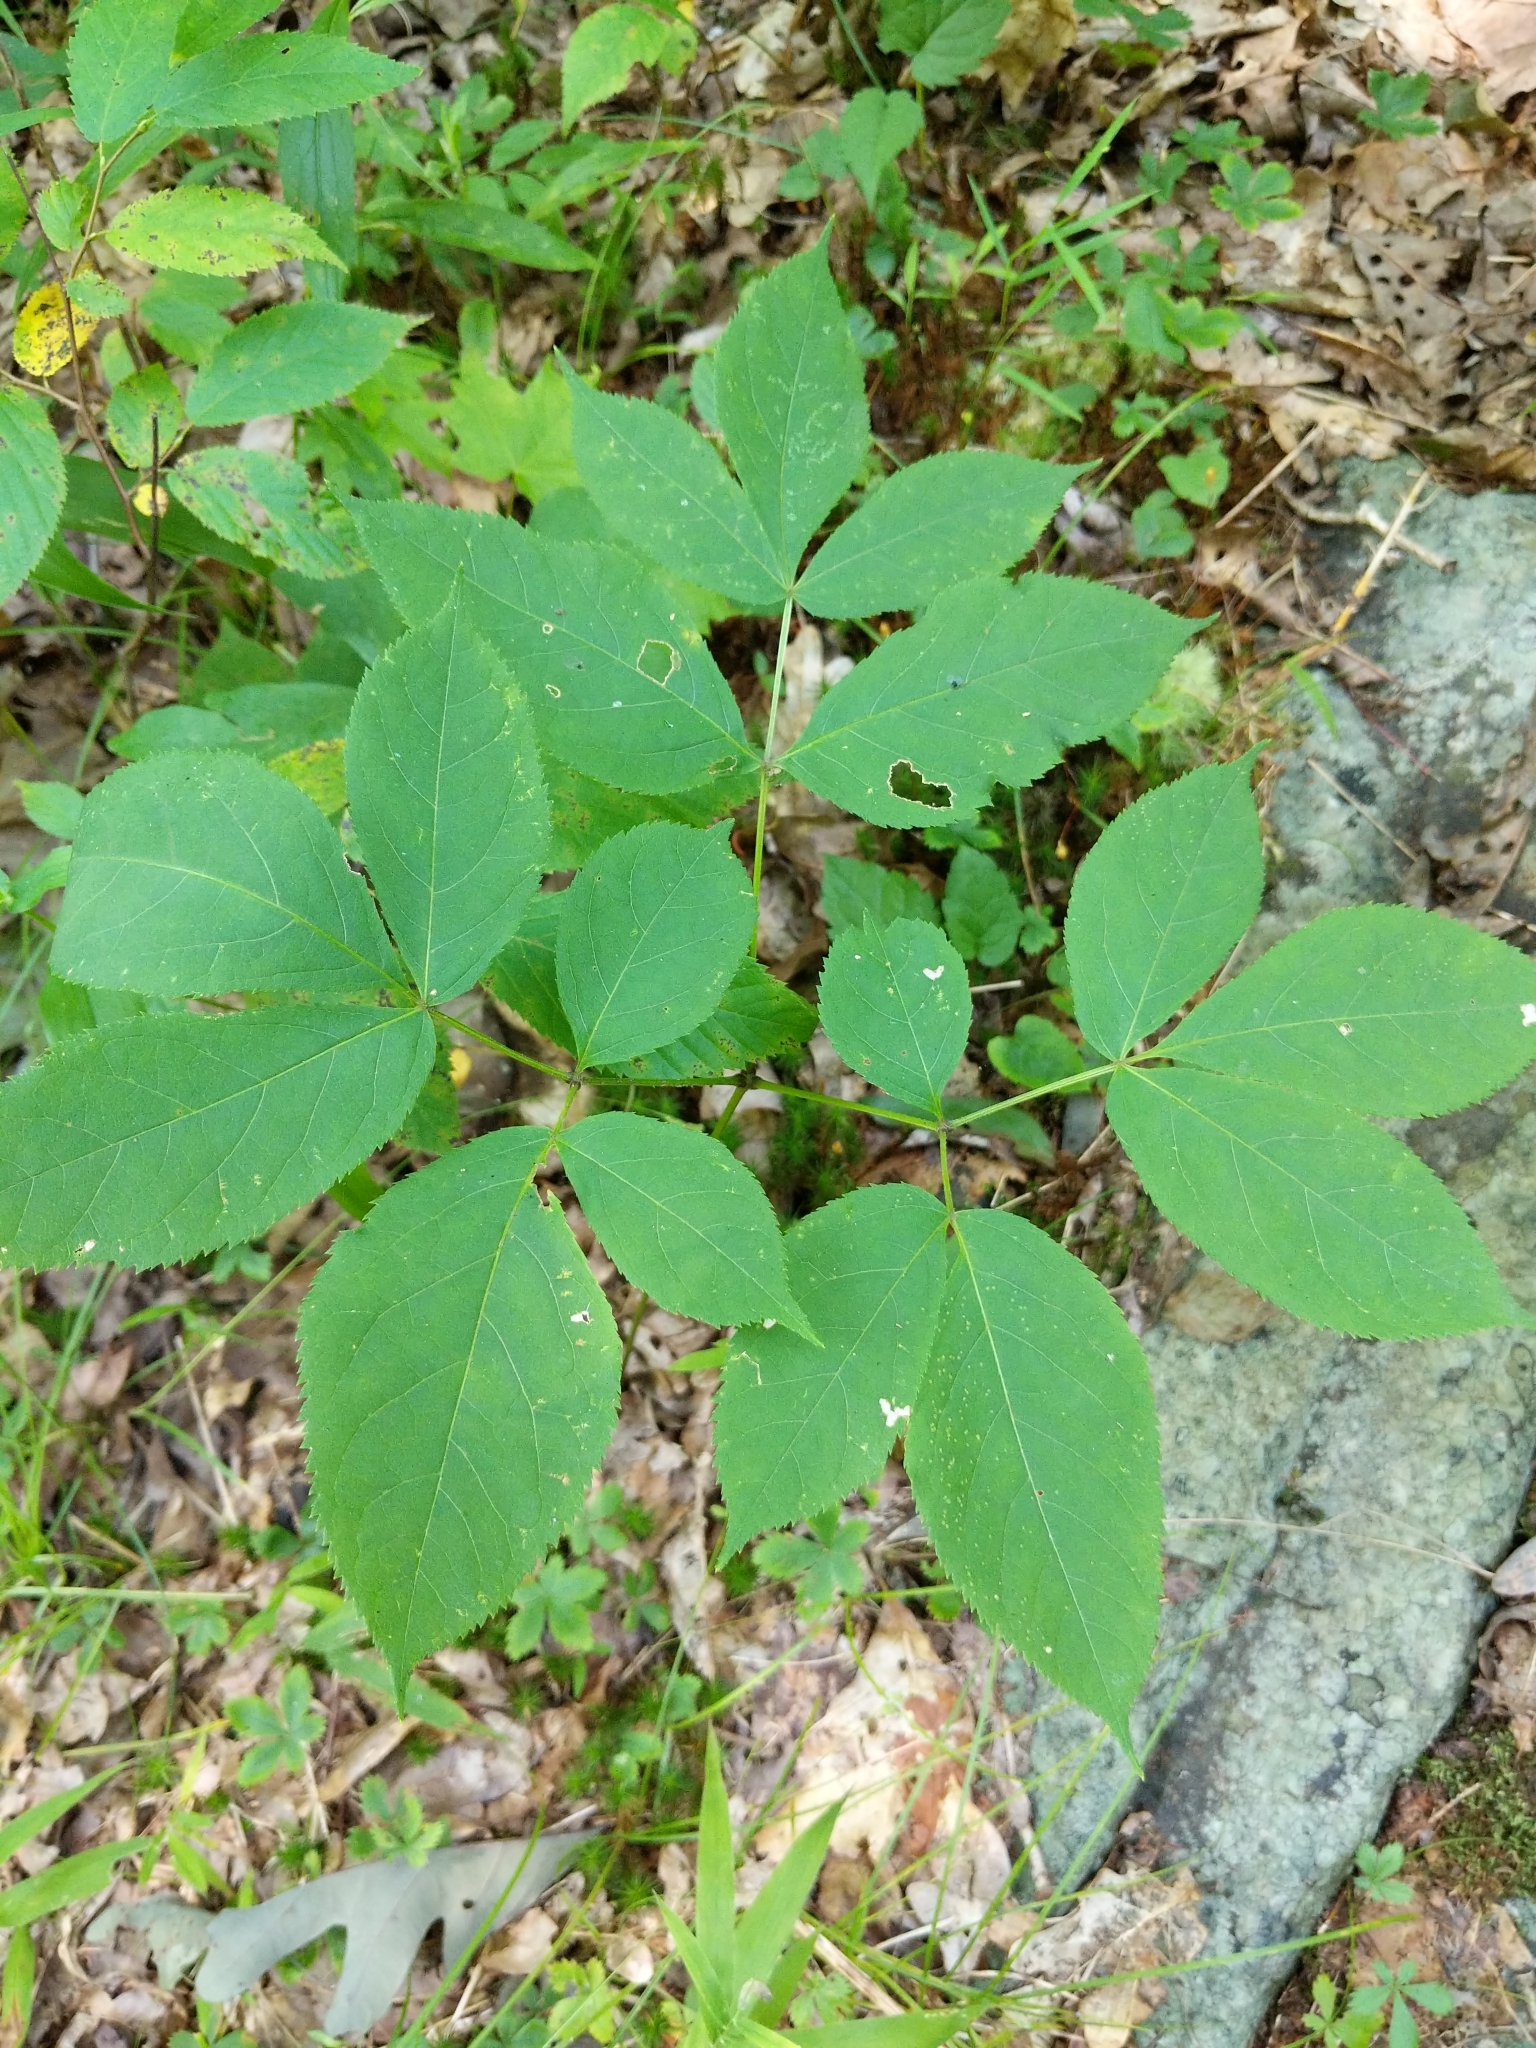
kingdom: Plantae
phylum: Tracheophyta
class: Magnoliopsida
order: Apiales
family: Araliaceae
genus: Aralia
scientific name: Aralia nudicaulis
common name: Wild sarsaparilla
